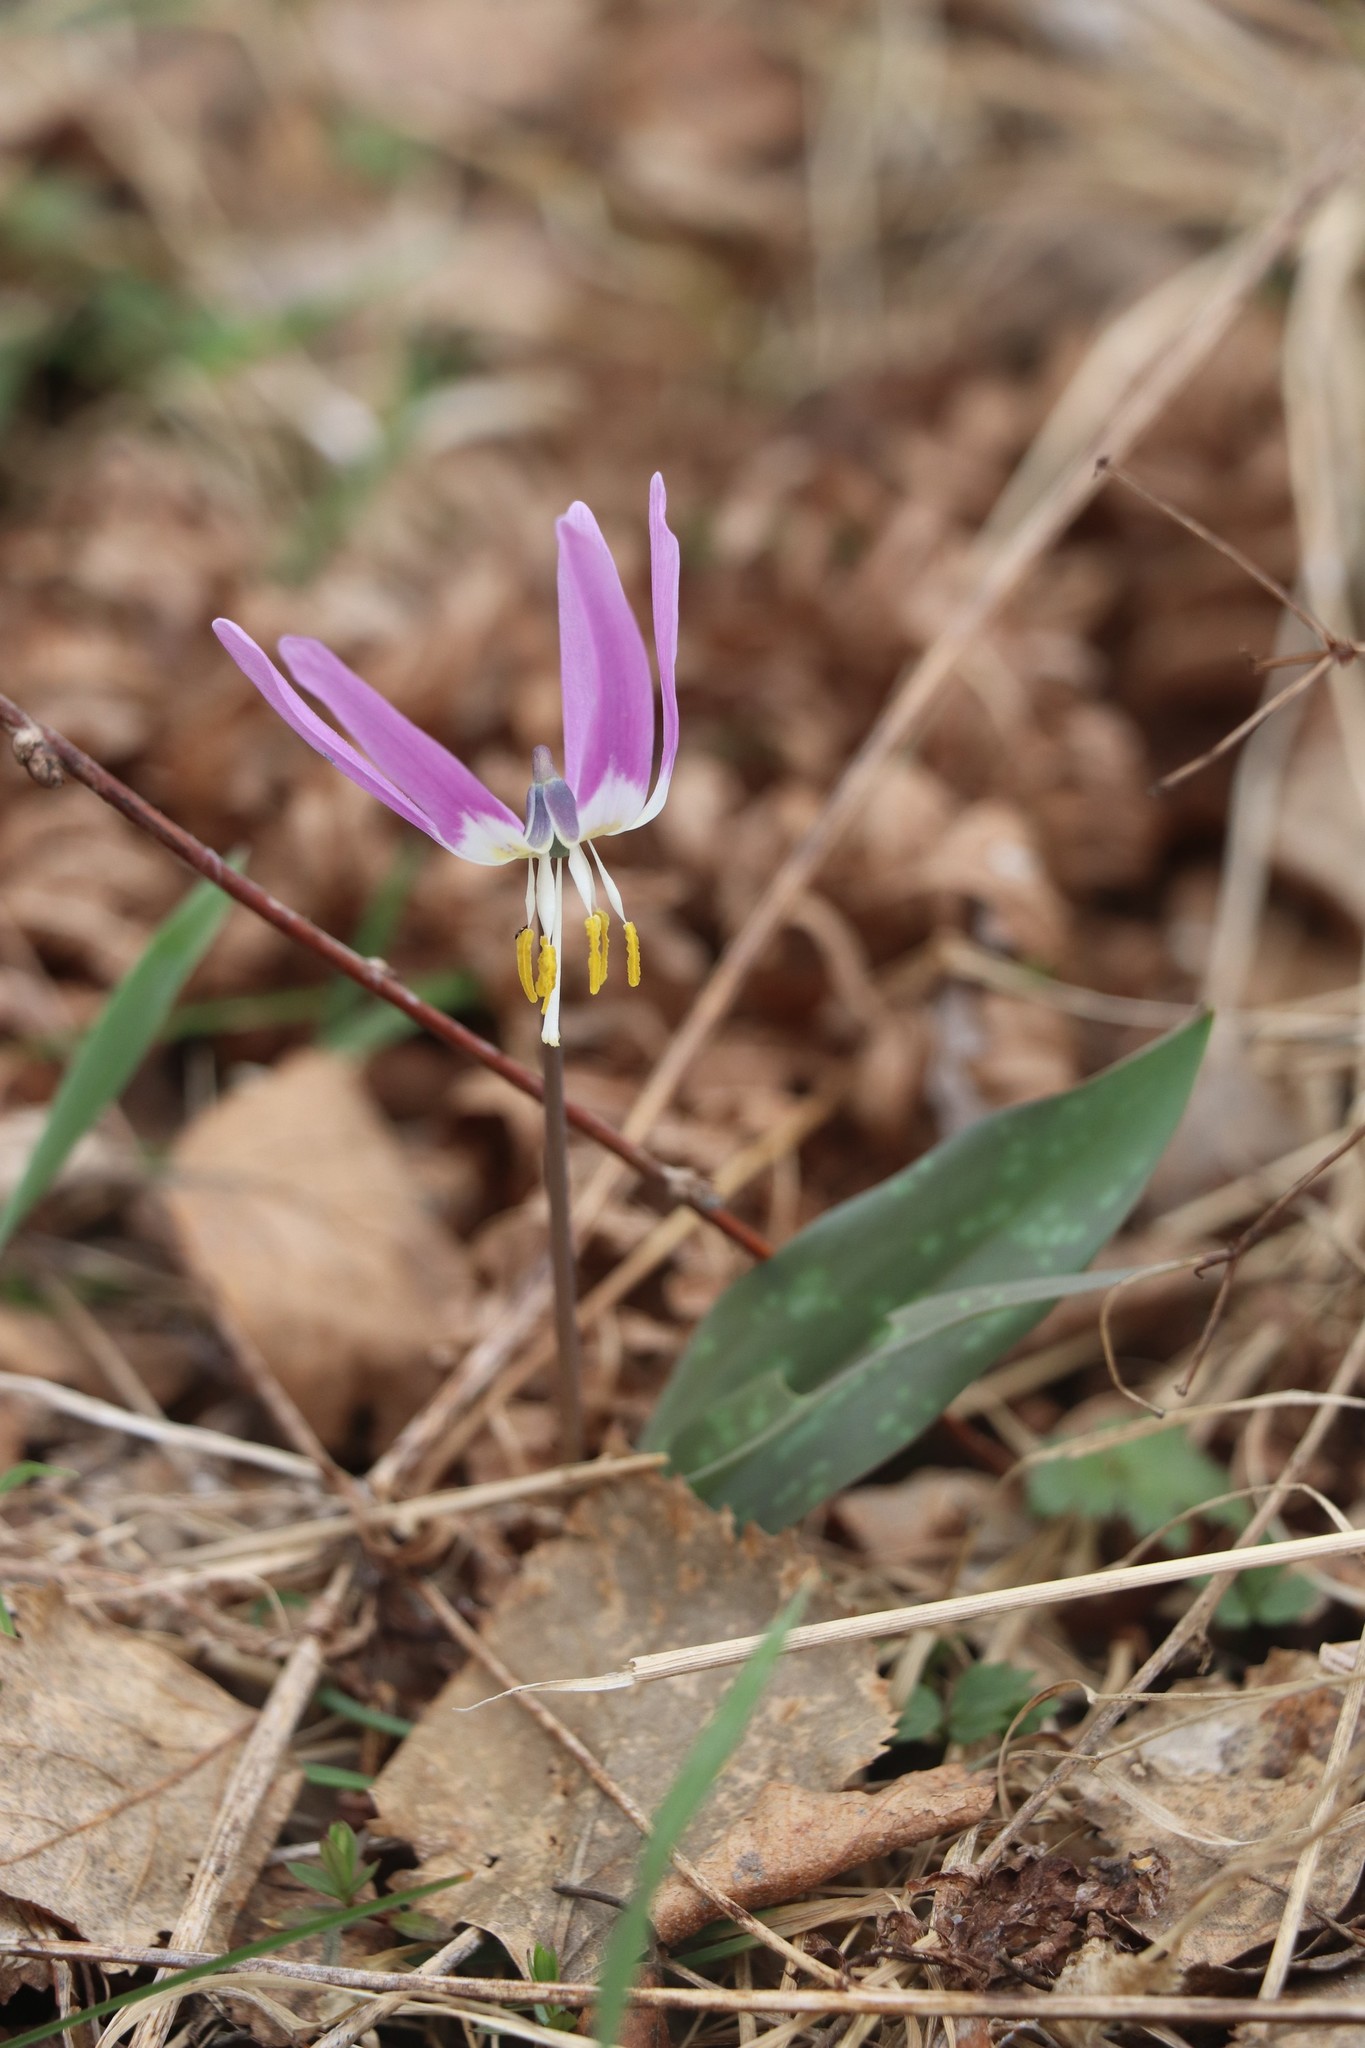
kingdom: Plantae
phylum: Tracheophyta
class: Liliopsida
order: Liliales
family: Liliaceae
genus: Erythronium
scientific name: Erythronium sibiricum
